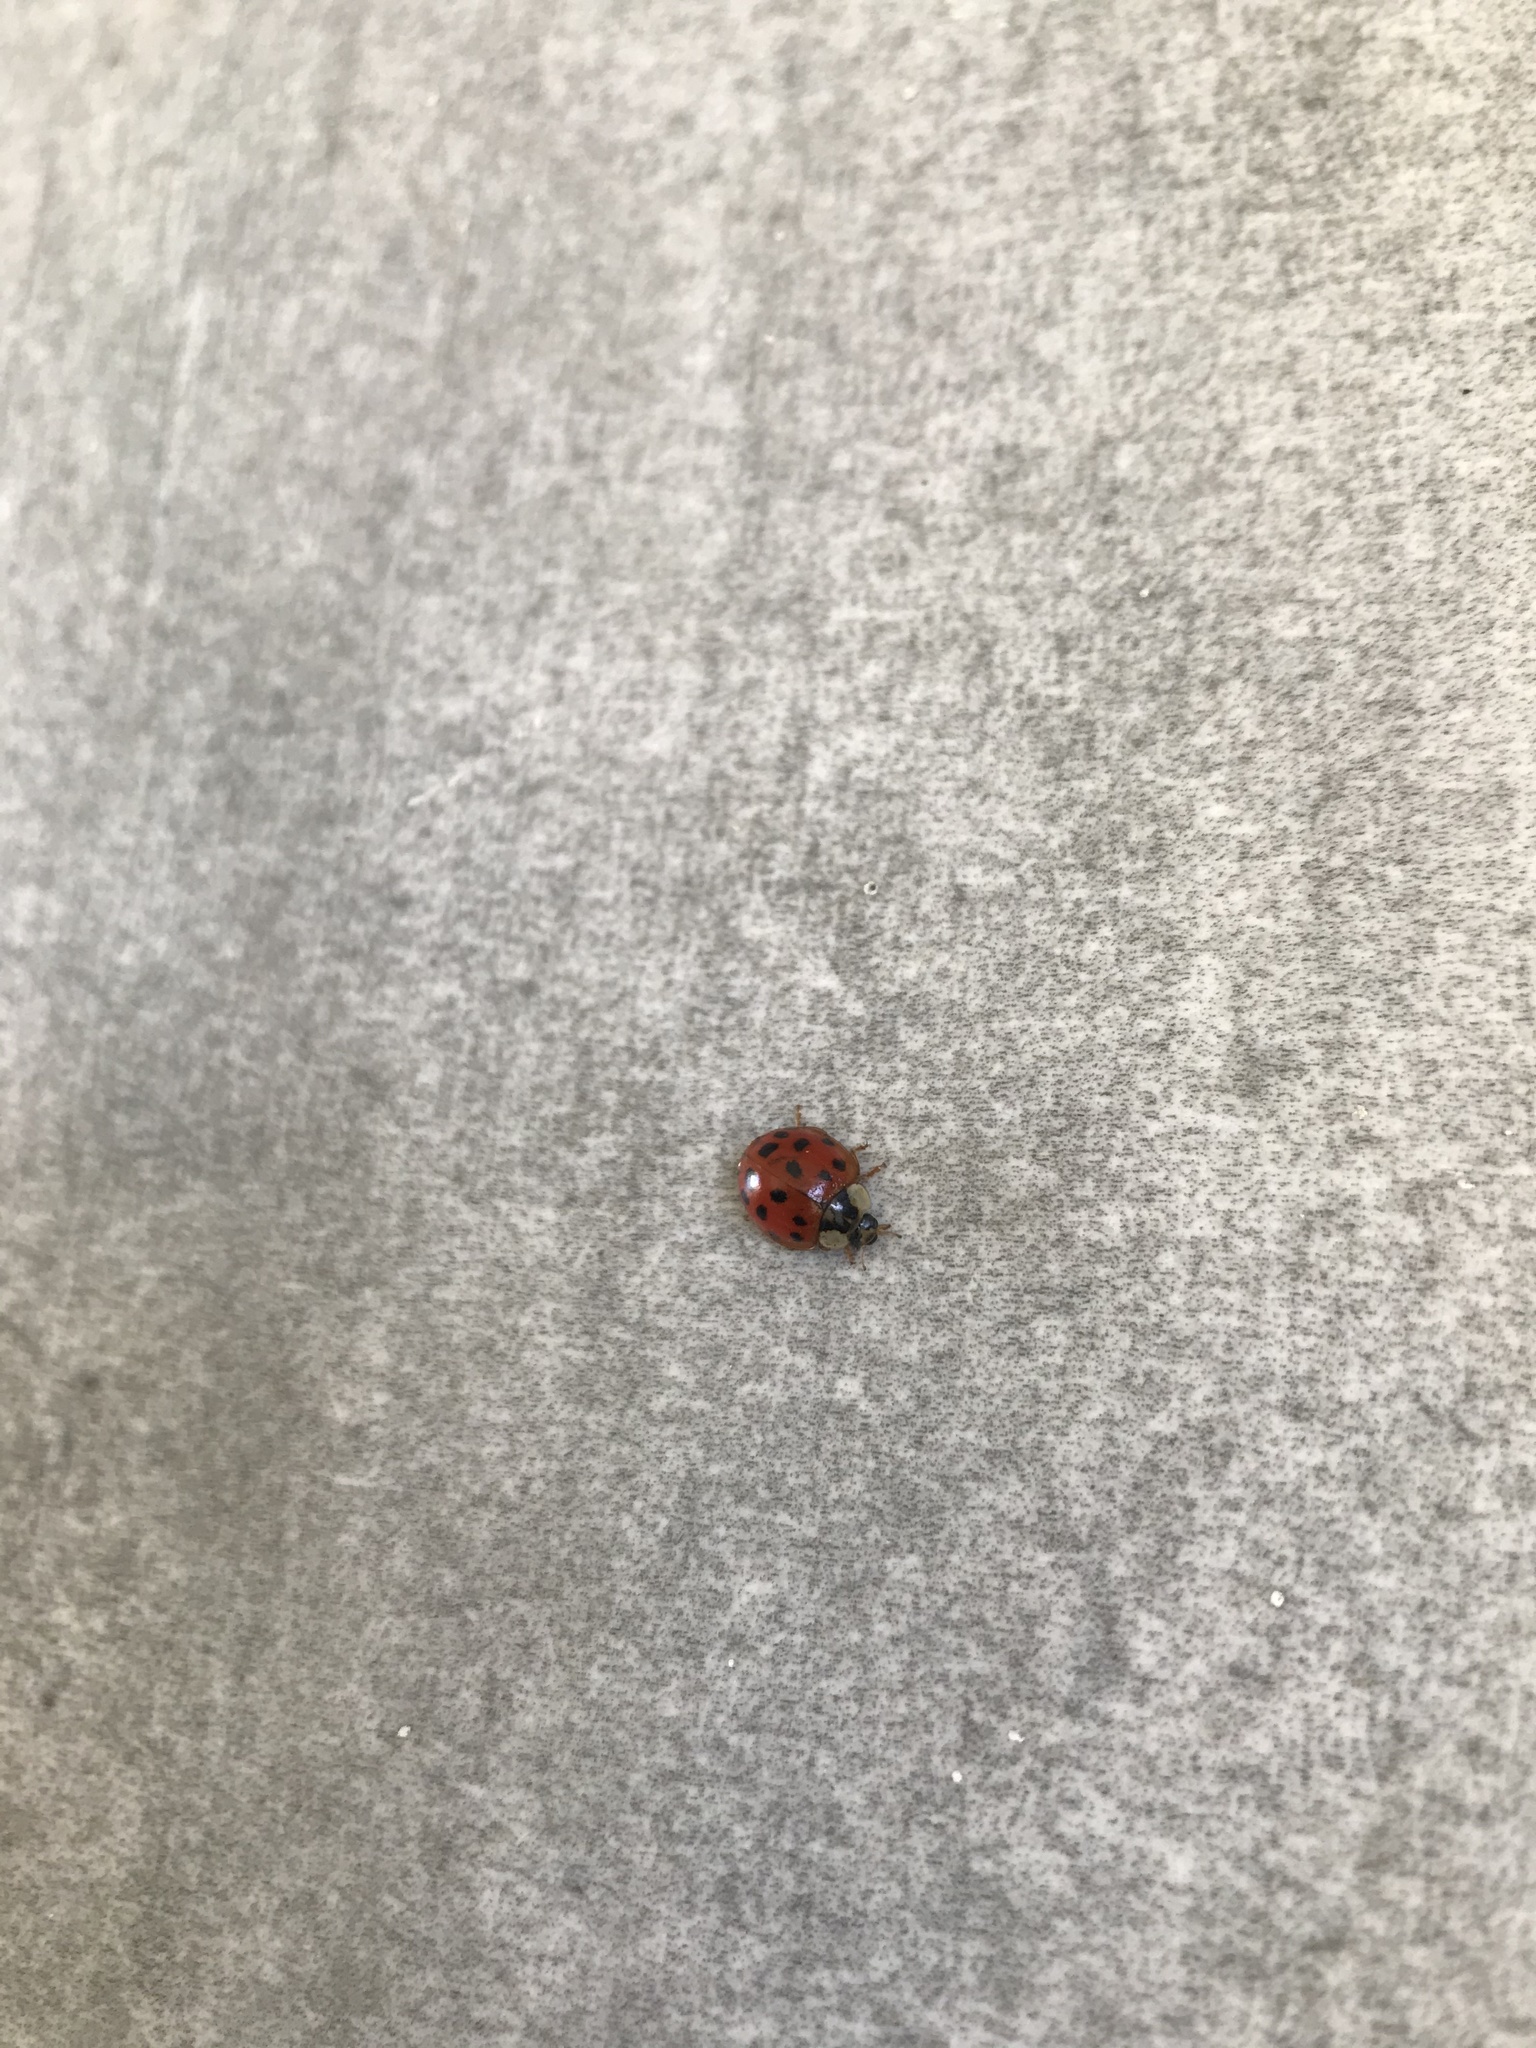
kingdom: Animalia
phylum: Arthropoda
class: Insecta
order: Coleoptera
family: Coccinellidae
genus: Harmonia
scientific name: Harmonia axyridis
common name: Harlequin ladybird
